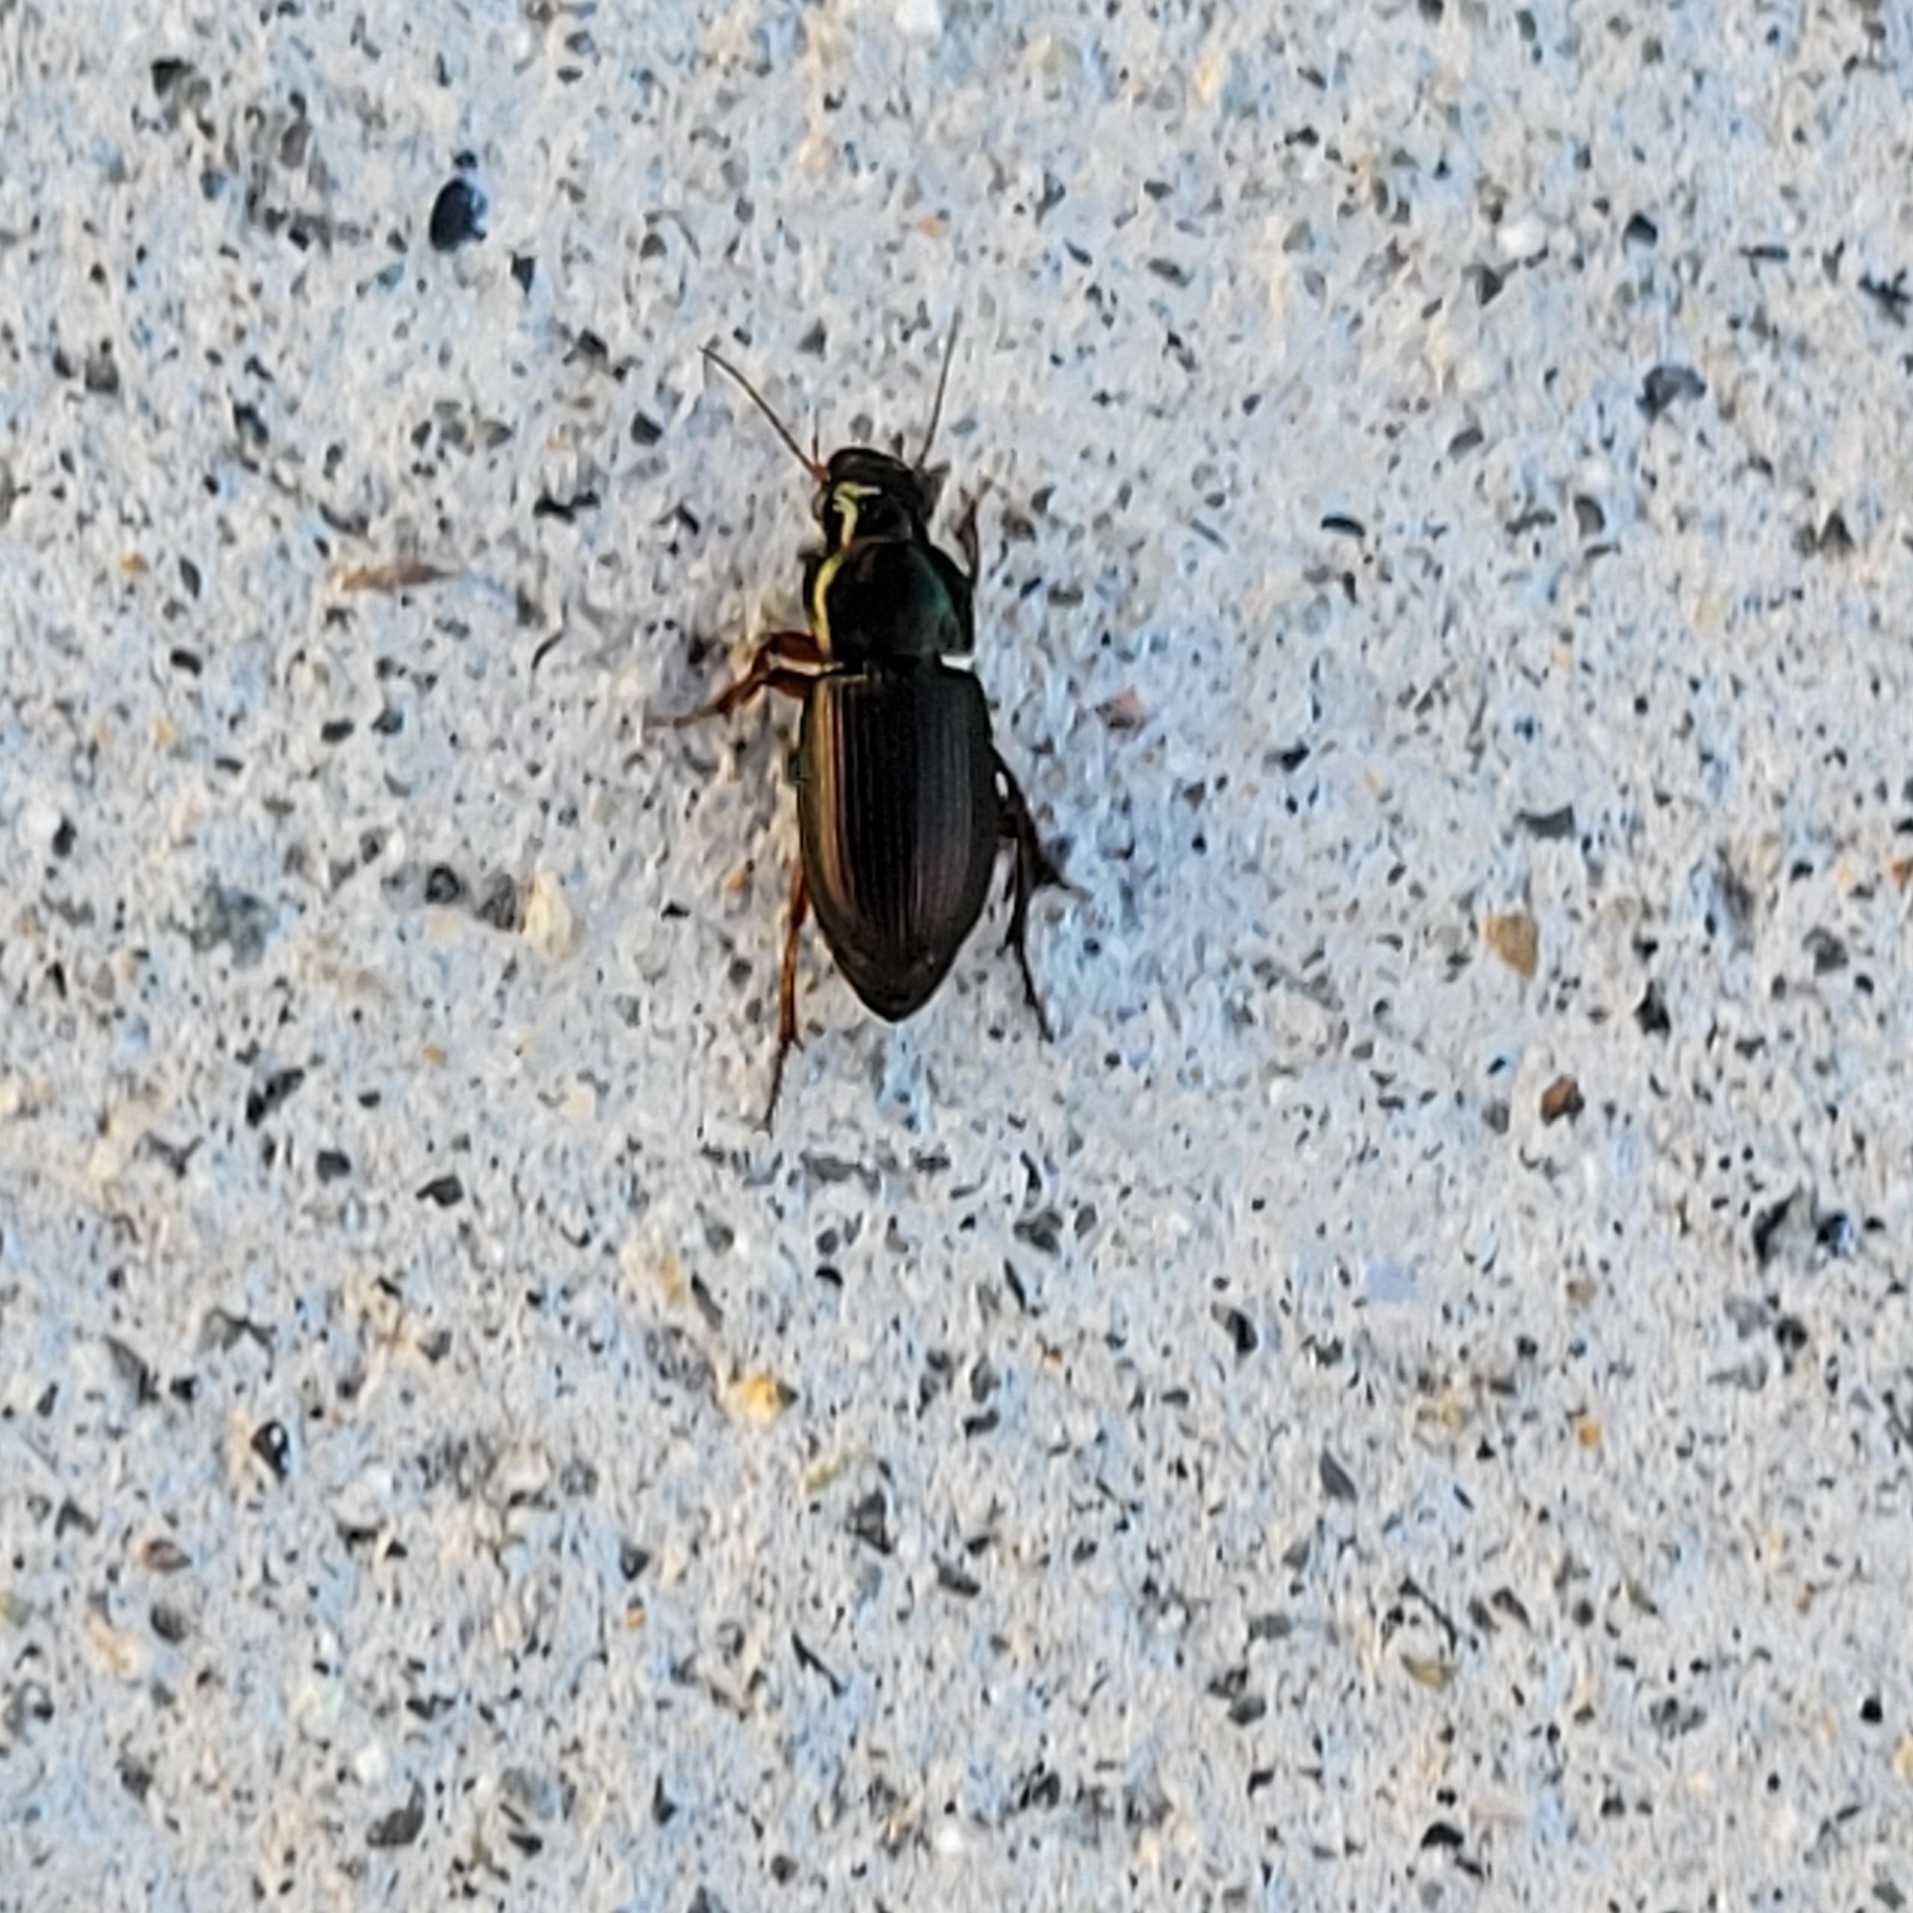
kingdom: Animalia
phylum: Arthropoda
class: Insecta
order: Coleoptera
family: Carabidae
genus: Harpalus
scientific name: Harpalus affinis
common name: Polychrome harp ground beetle
